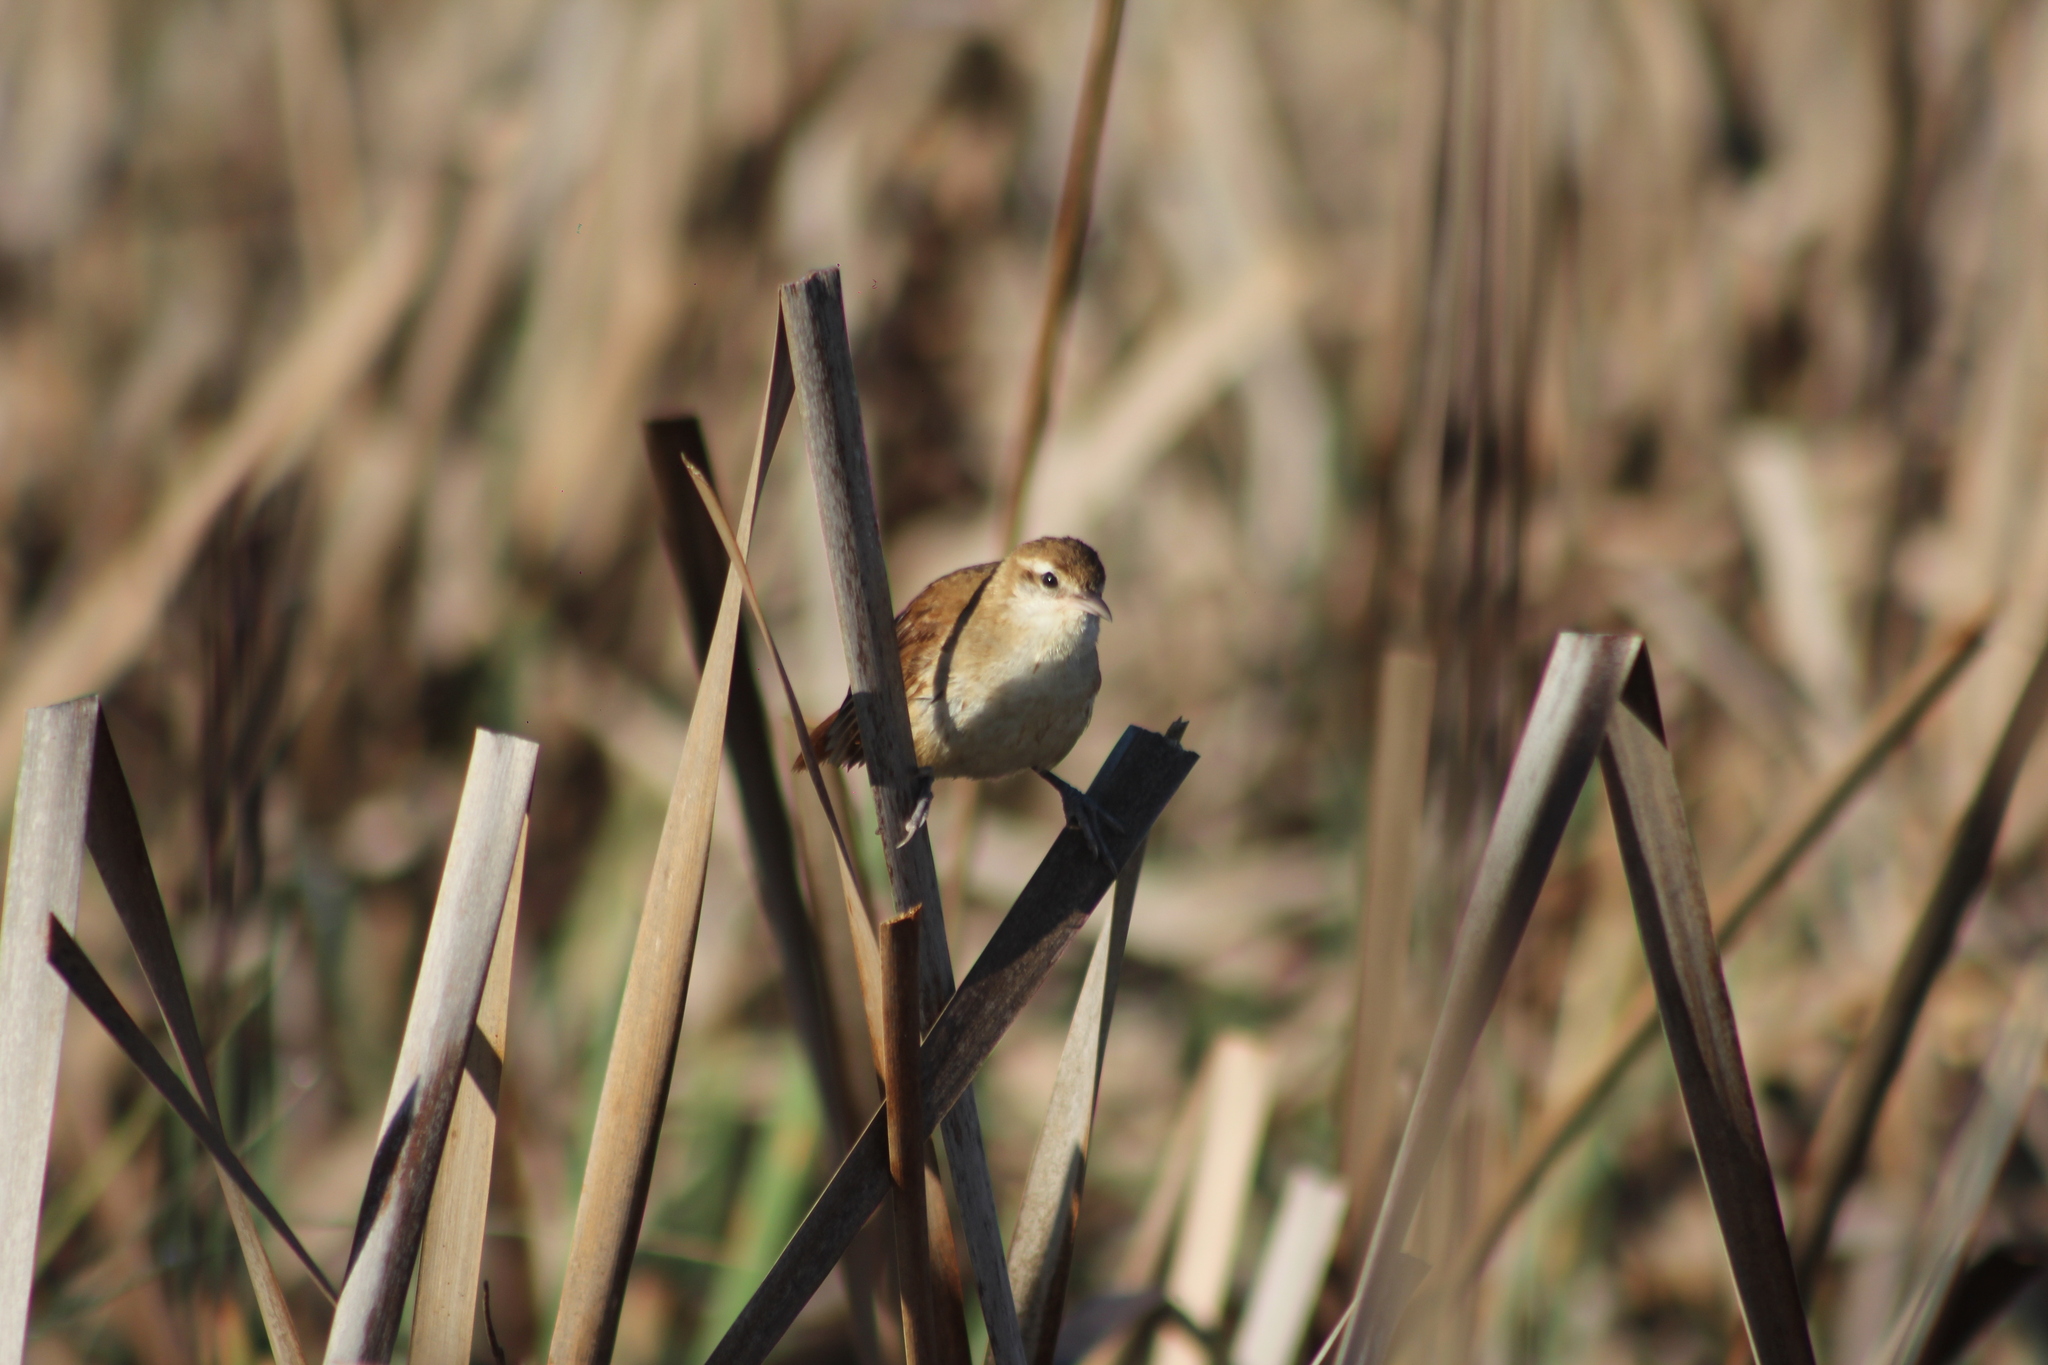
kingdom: Animalia
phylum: Chordata
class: Aves
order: Passeriformes
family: Furnariidae
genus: Limnornis
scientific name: Limnornis curvirostris
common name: Curve-billed reedhaunter
